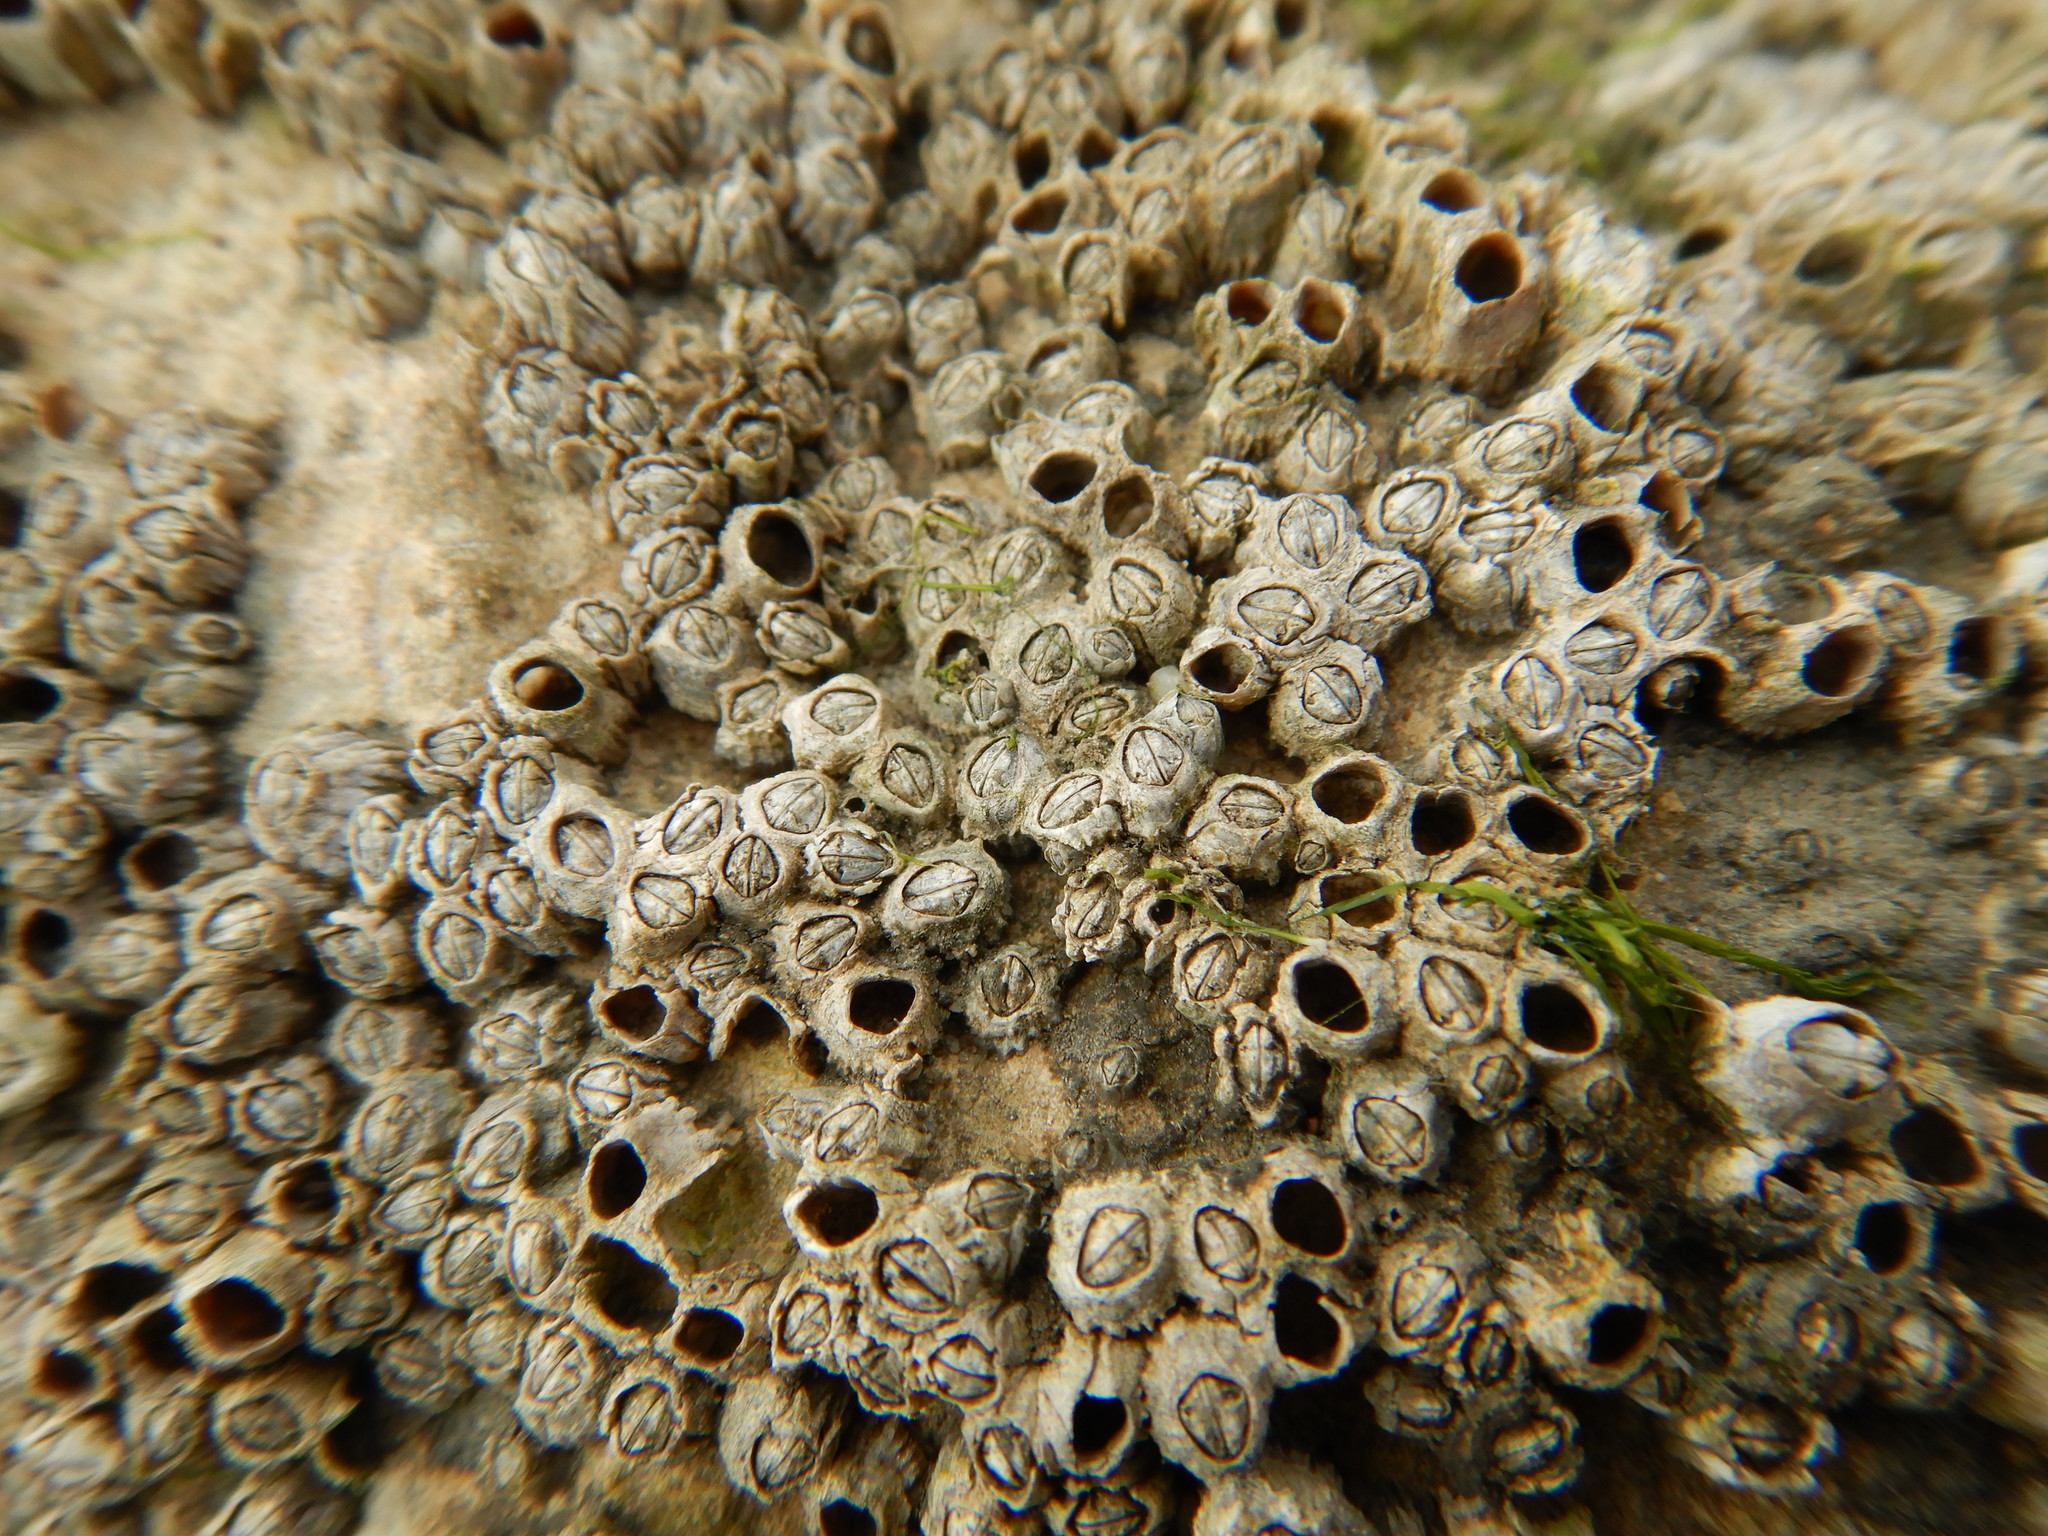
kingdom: Animalia
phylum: Arthropoda
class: Maxillopoda
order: Sessilia
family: Chthamalidae
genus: Chthamalus
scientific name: Chthamalus montagui
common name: Montagu's stellate barnacle
